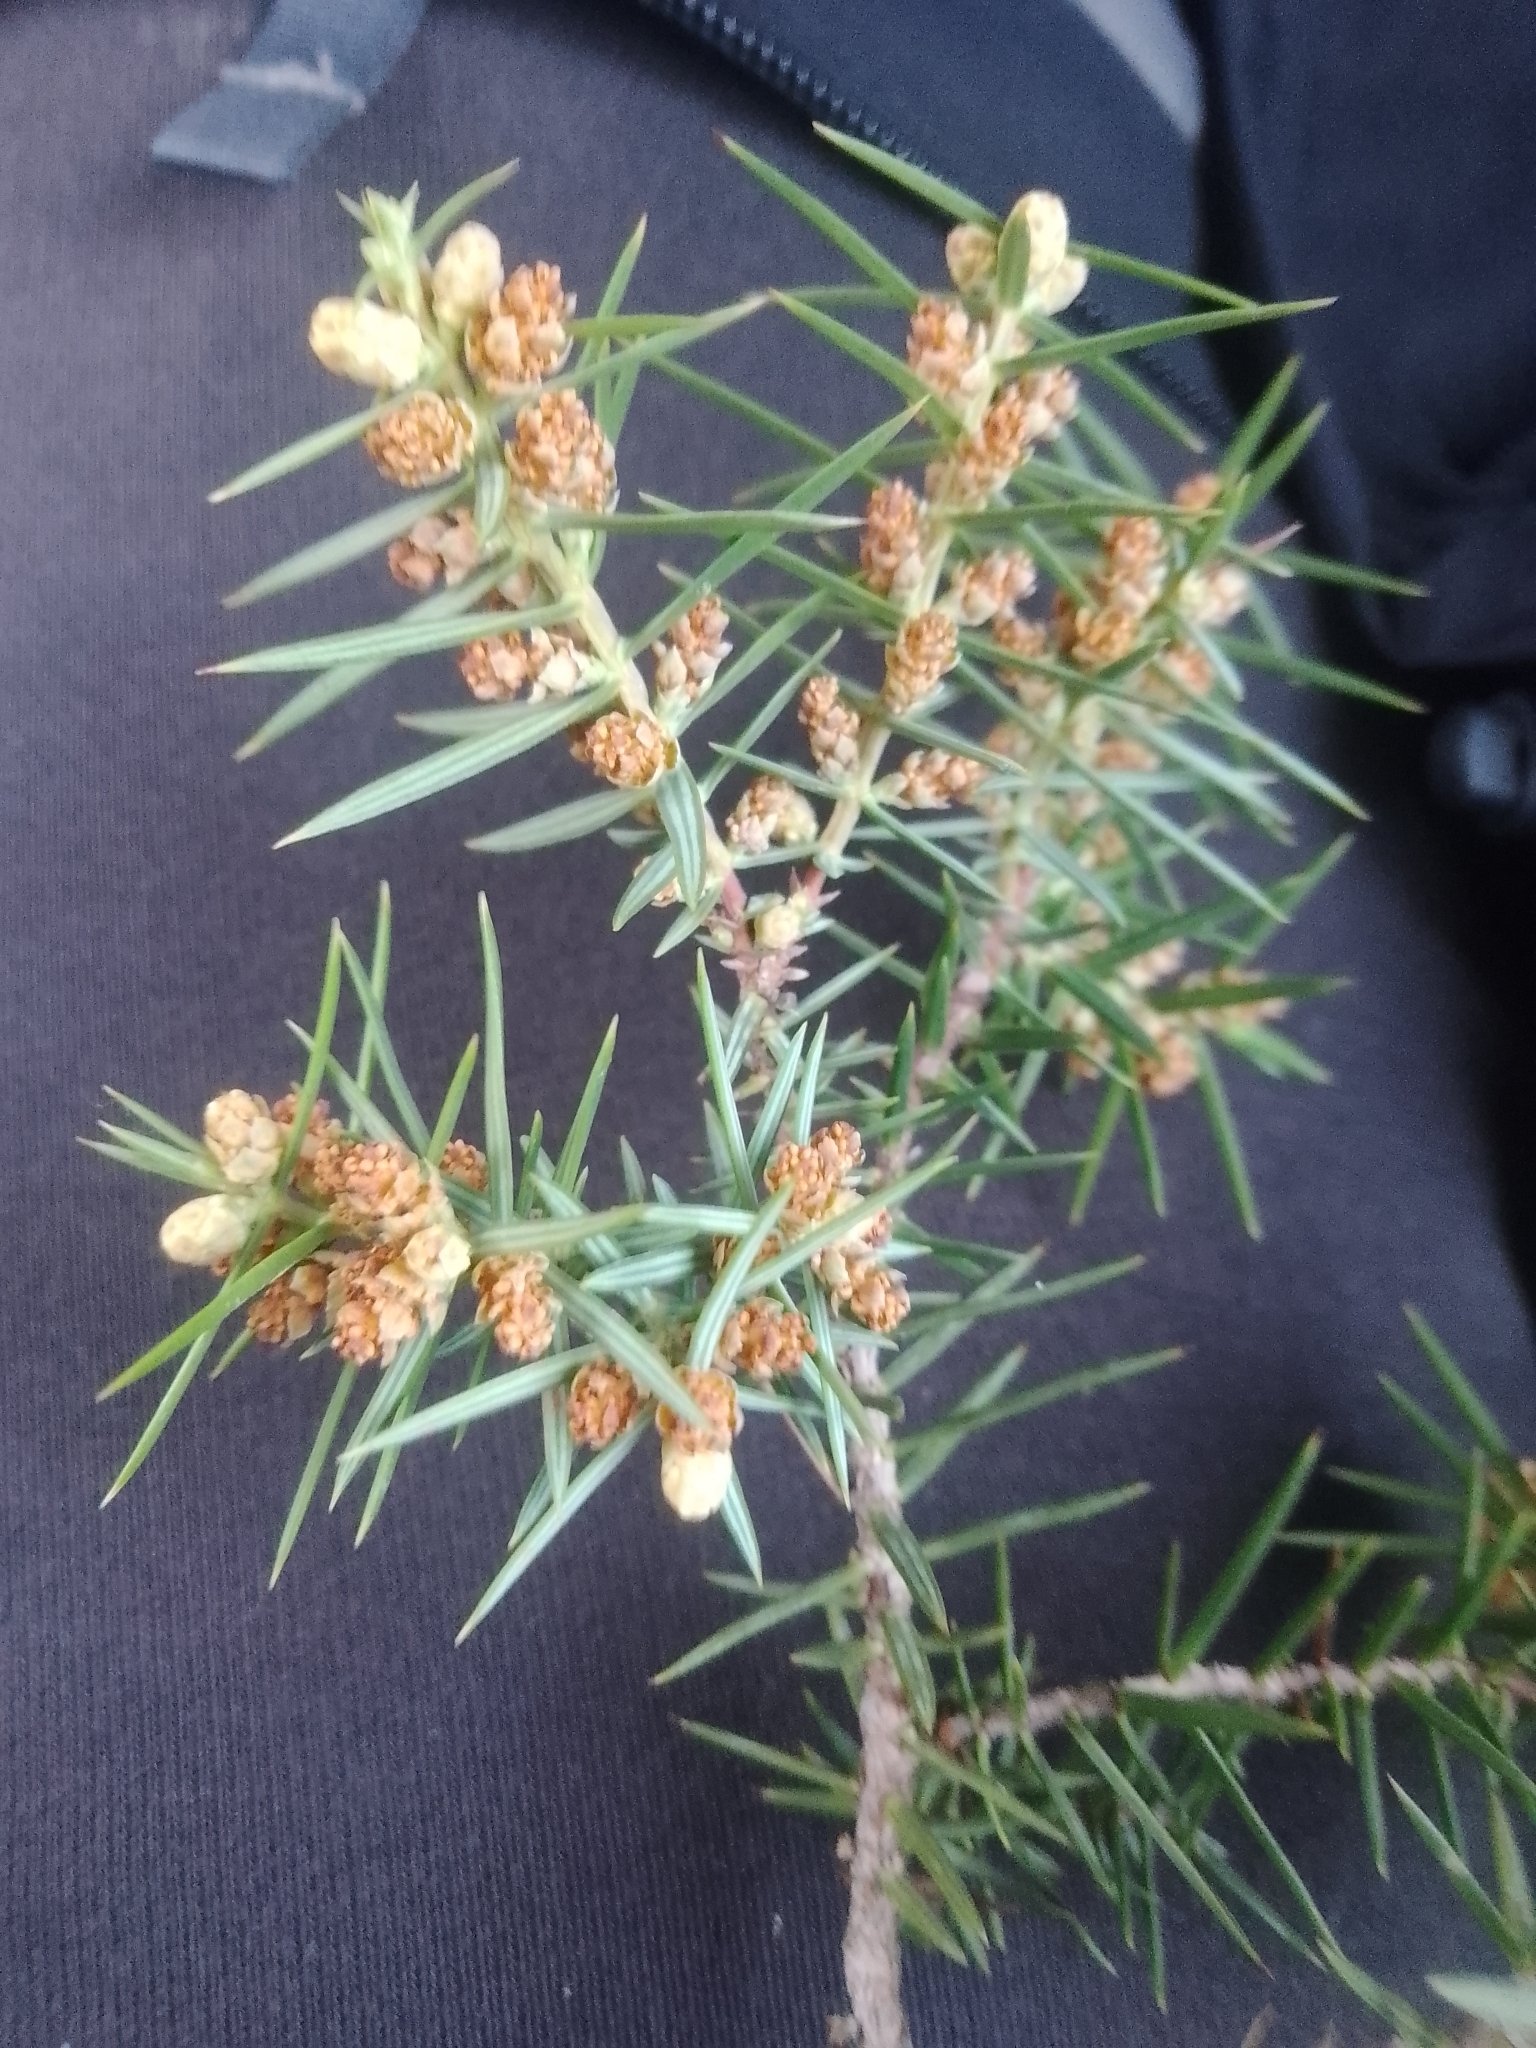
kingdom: Plantae
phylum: Tracheophyta
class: Pinopsida
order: Pinales
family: Cupressaceae
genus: Juniperus
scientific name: Juniperus oxycedrus
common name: Prickly juniper
